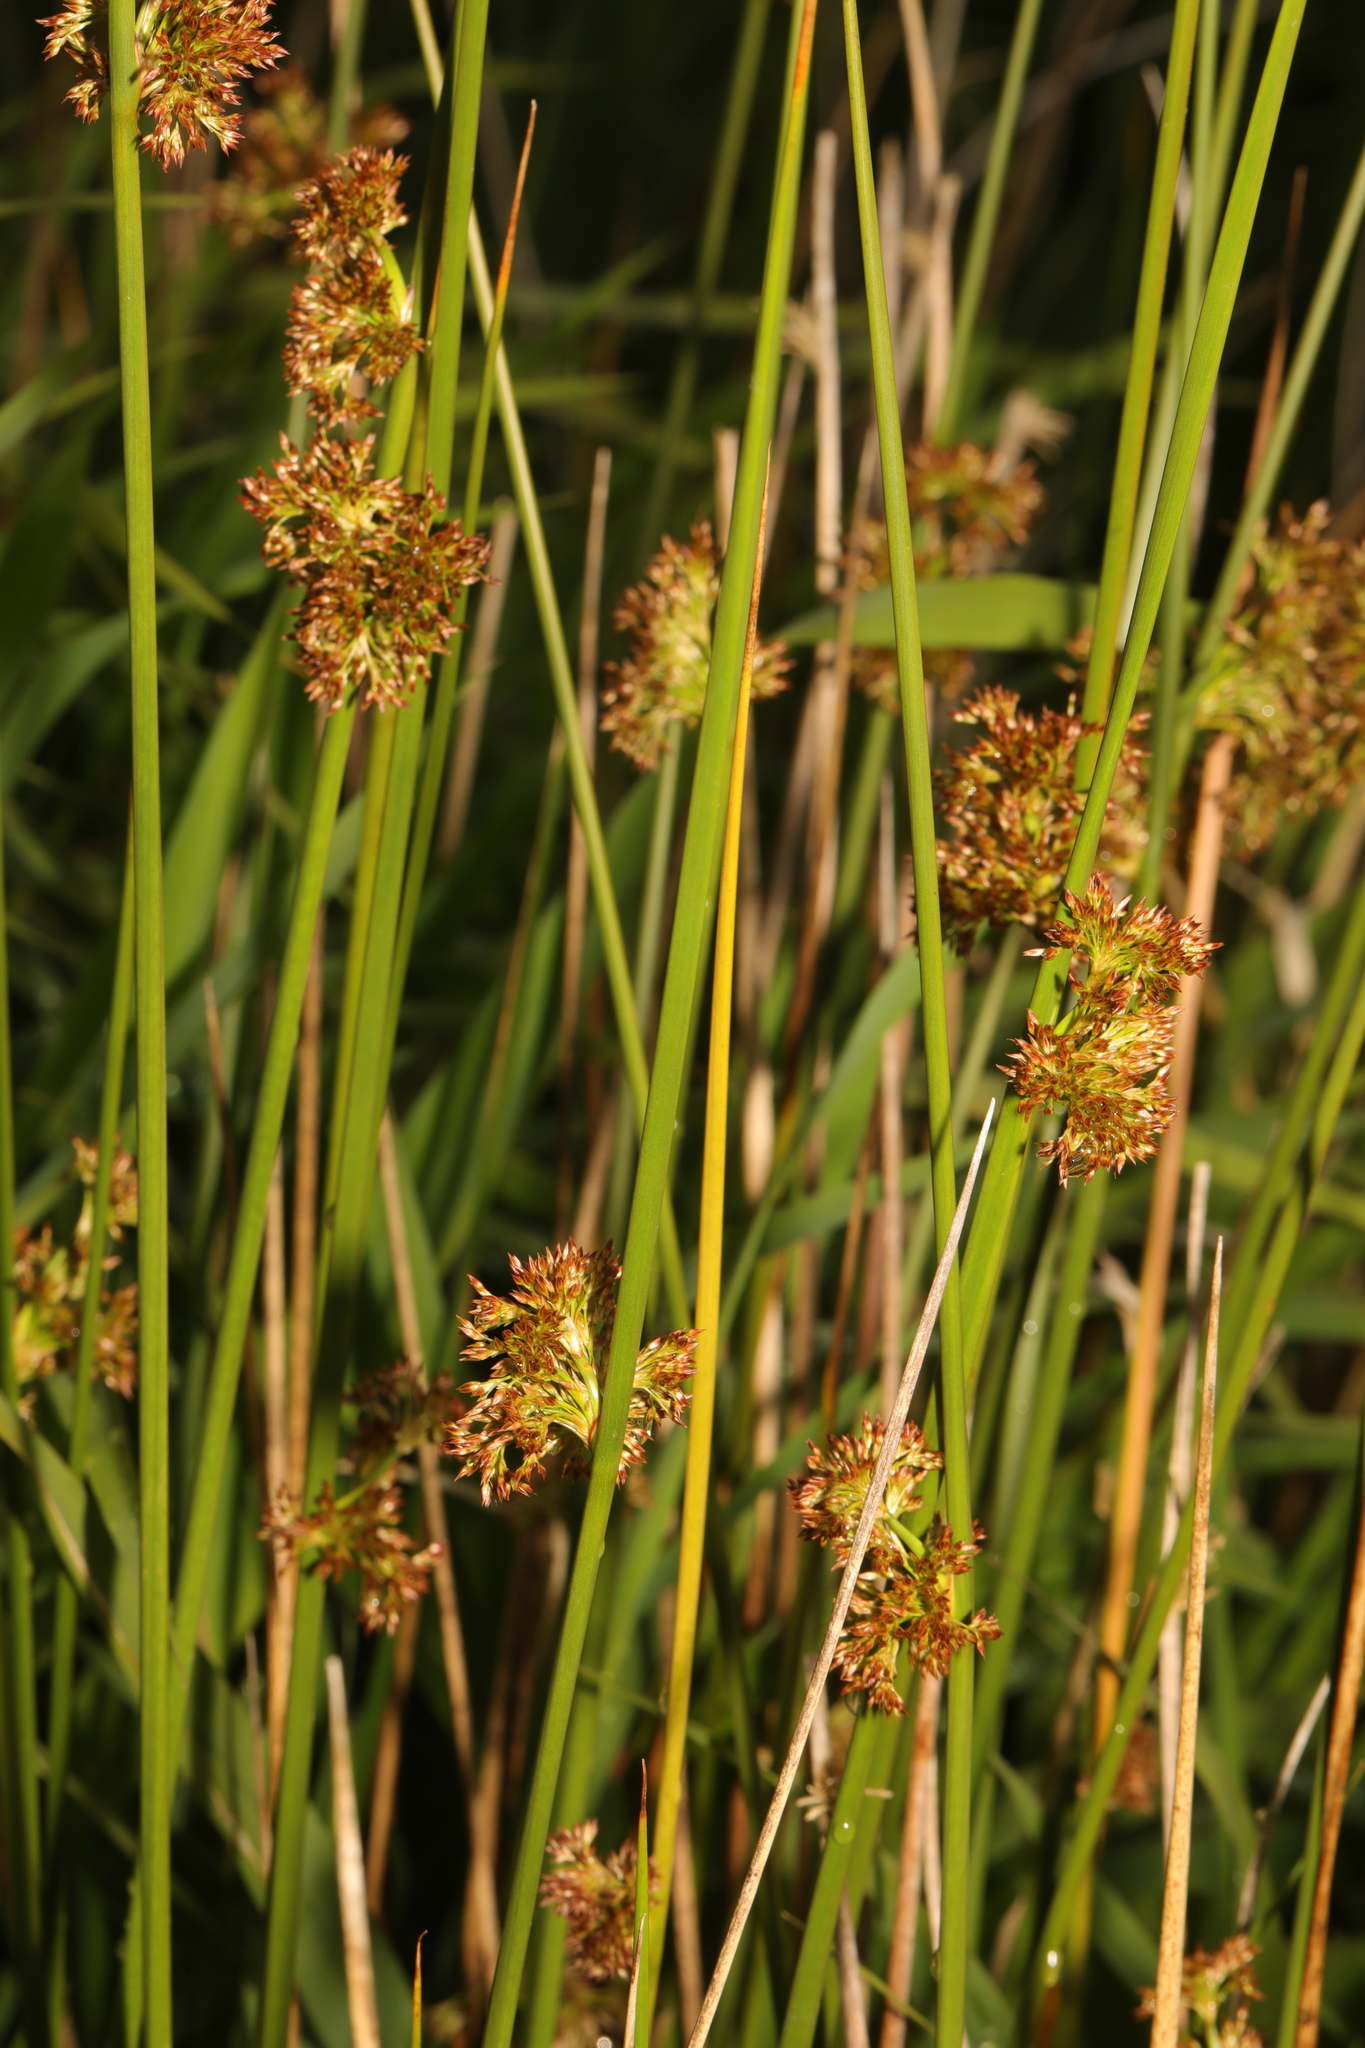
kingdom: Plantae
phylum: Tracheophyta
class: Liliopsida
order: Poales
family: Juncaceae
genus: Juncus
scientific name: Juncus effusus
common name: Soft rush
